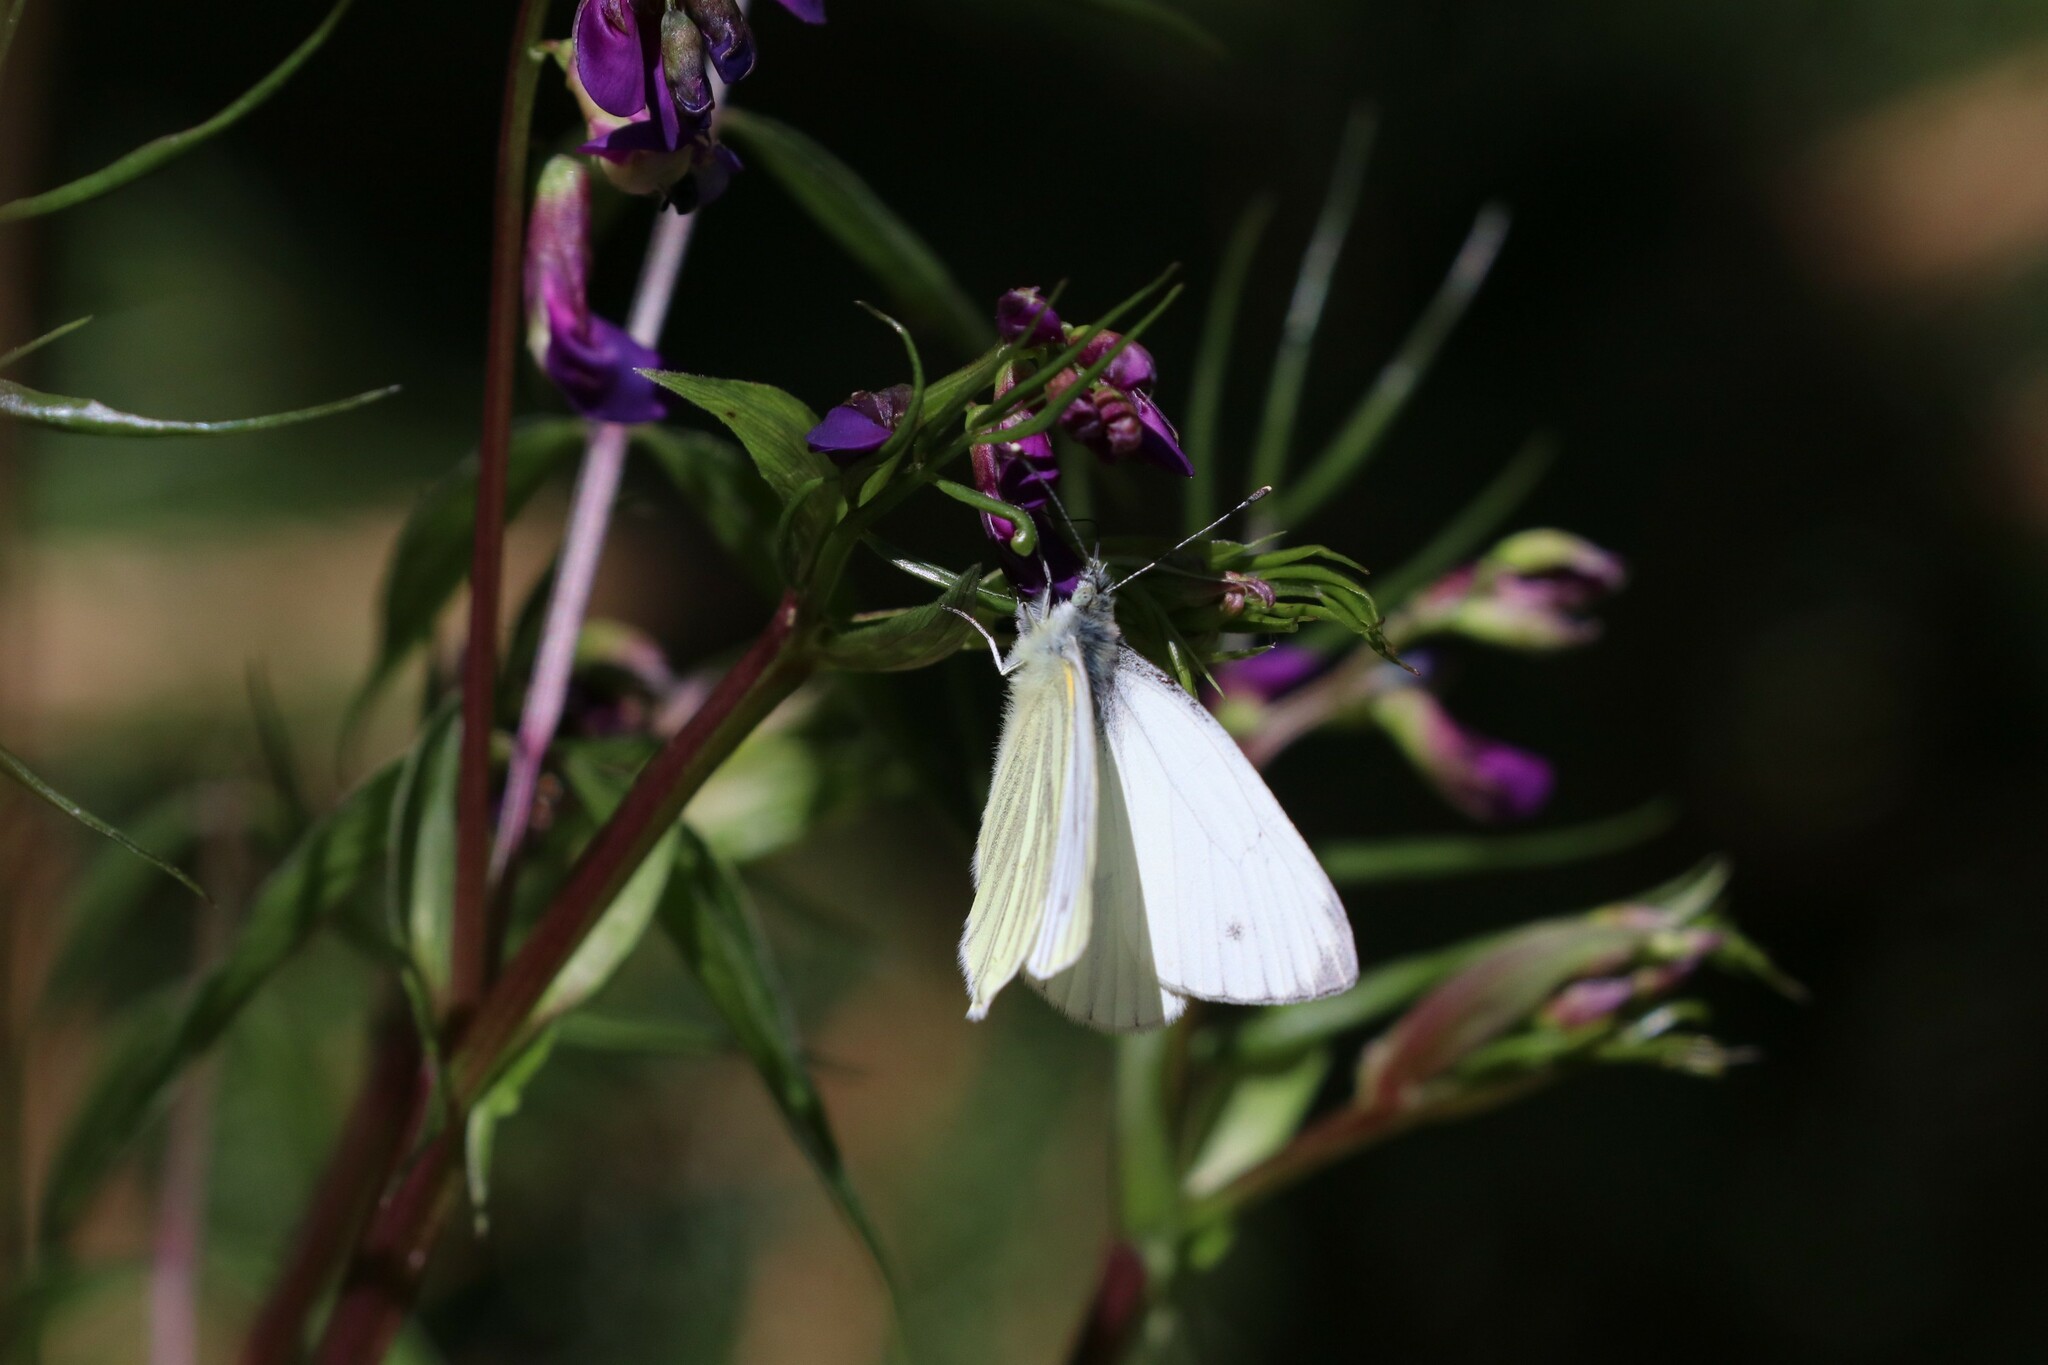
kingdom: Plantae
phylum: Tracheophyta
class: Magnoliopsida
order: Fabales
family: Fabaceae
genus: Lathyrus
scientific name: Lathyrus vernus
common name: Spring pea
